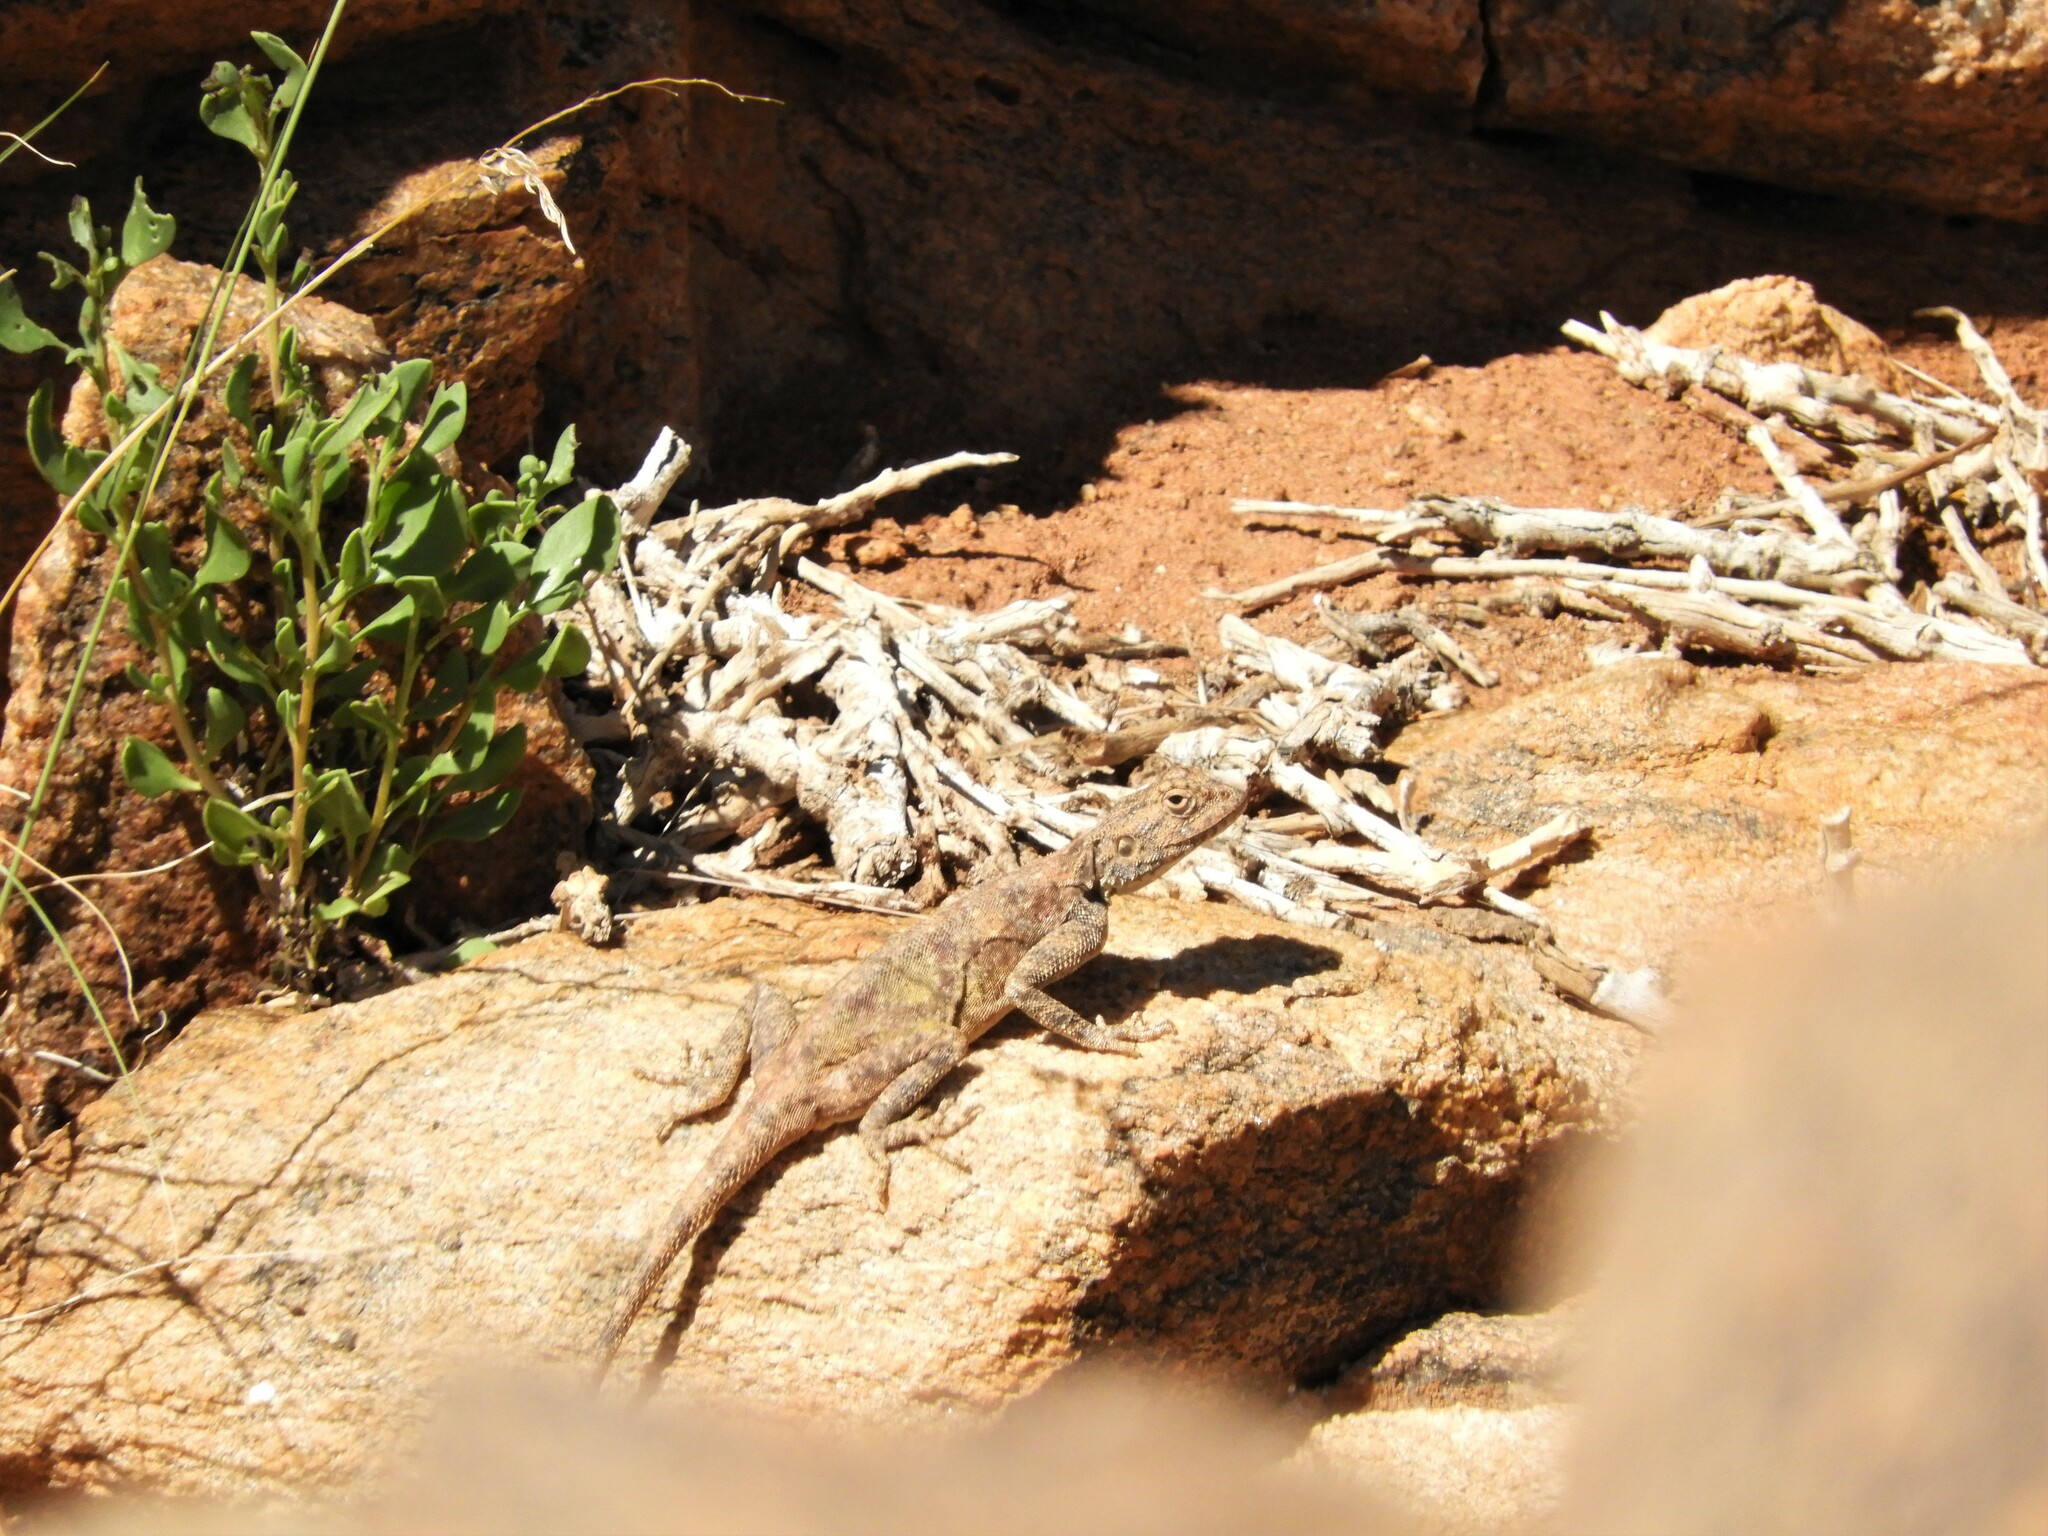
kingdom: Animalia
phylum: Chordata
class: Squamata
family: Agamidae
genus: Agama
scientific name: Agama atra
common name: Southern african rock agama
